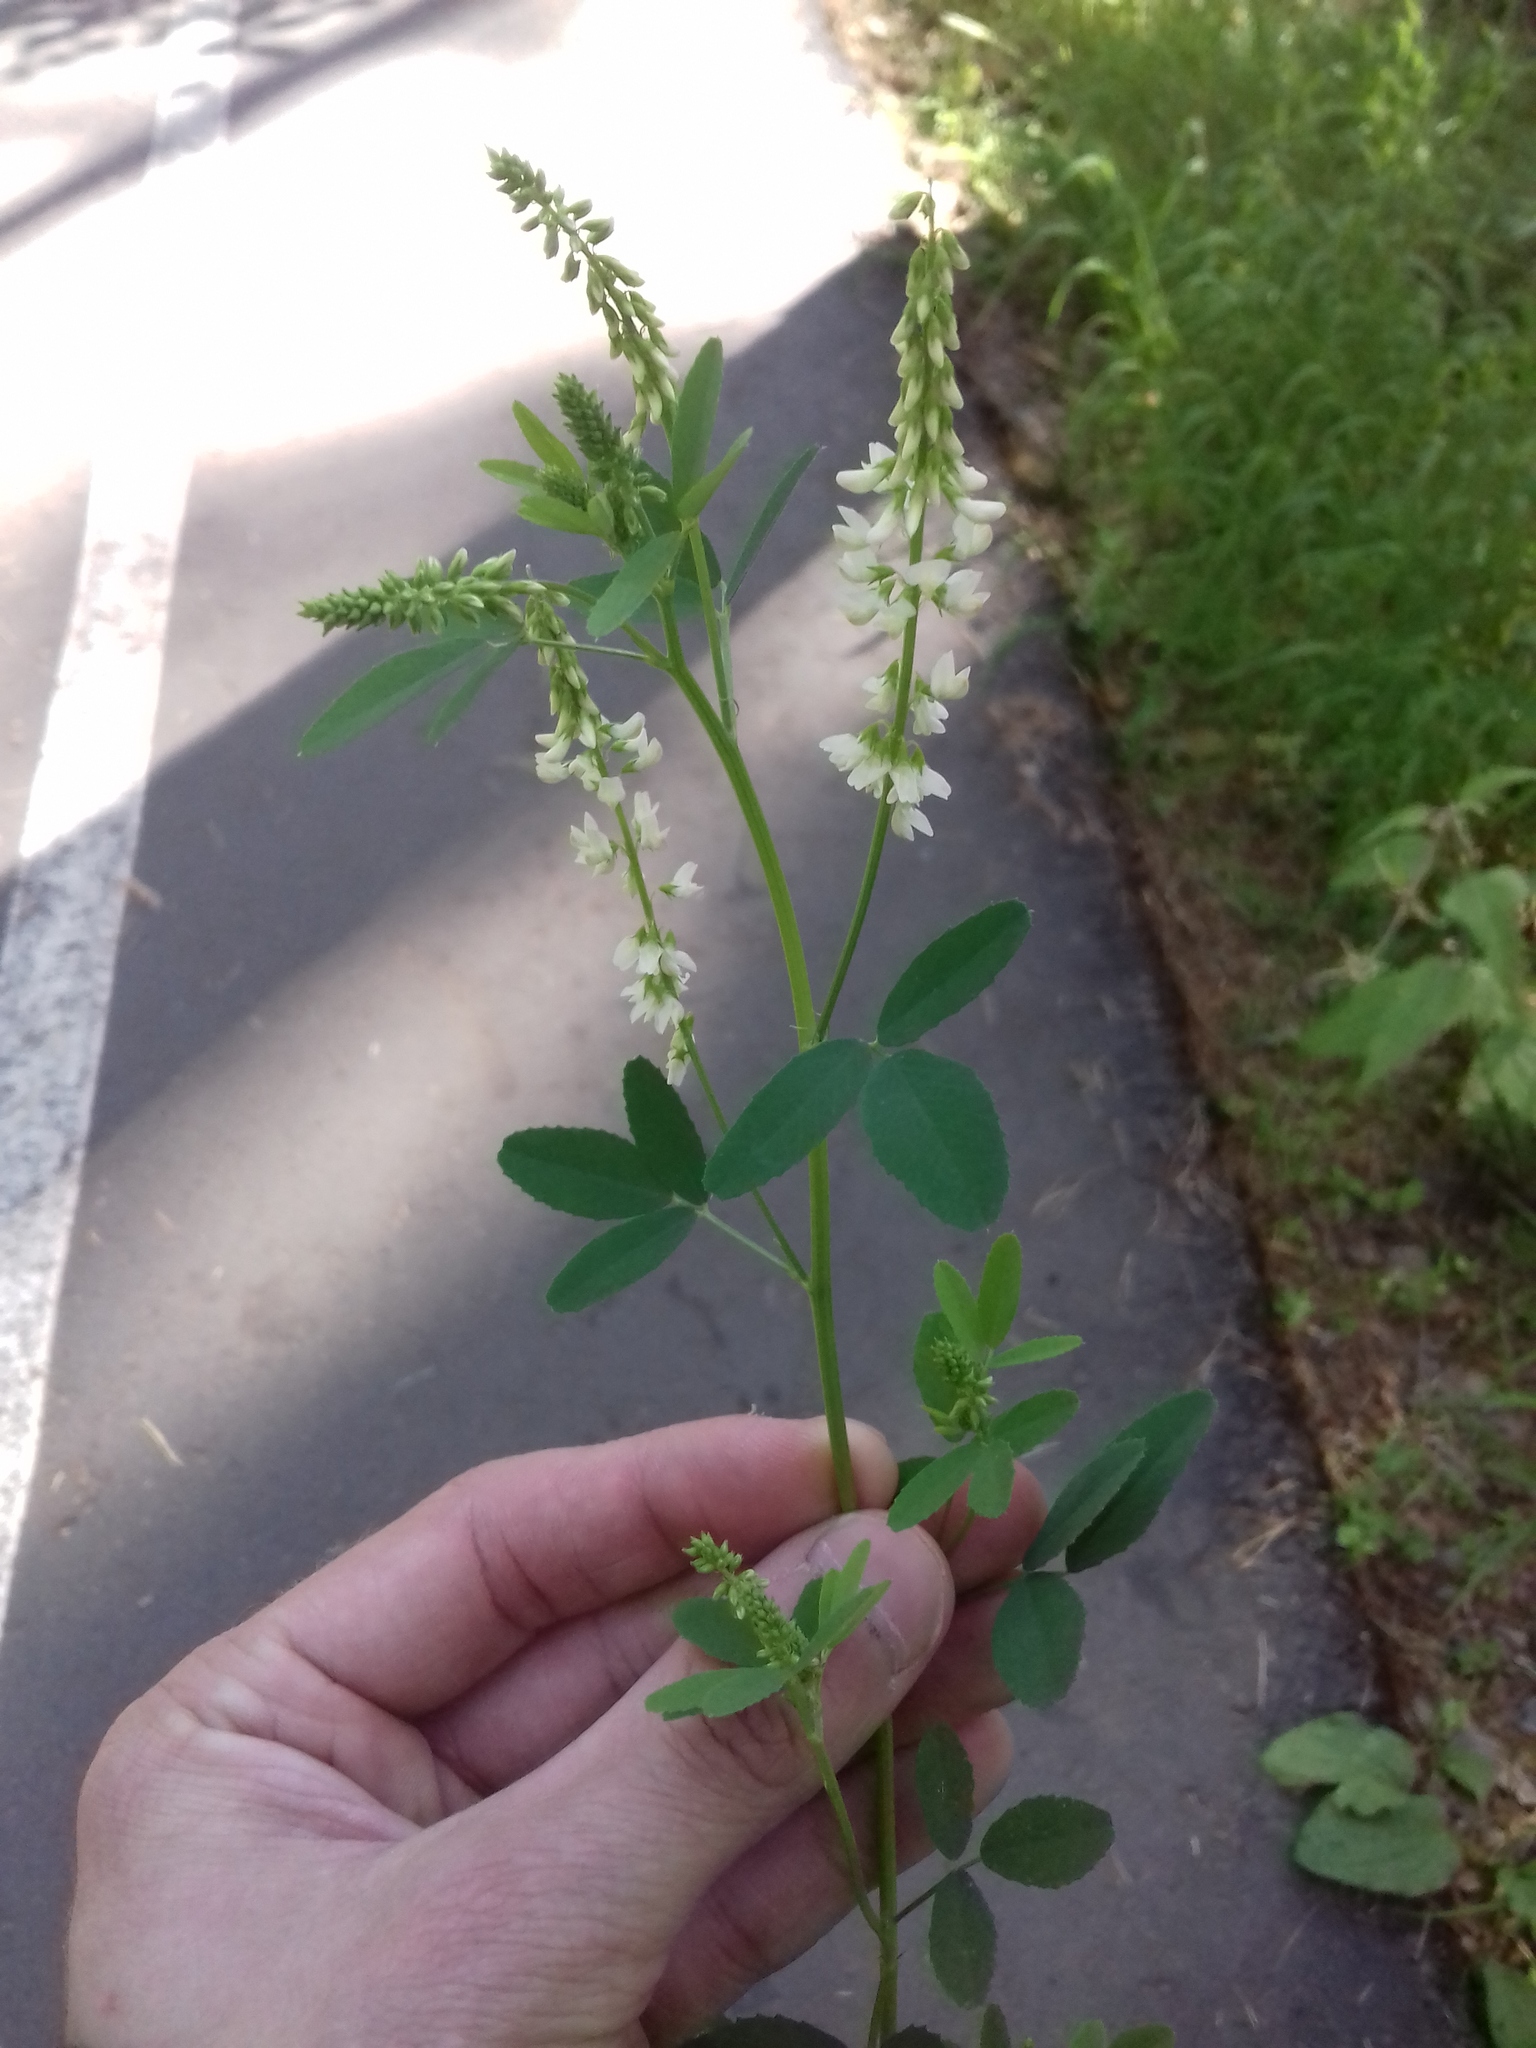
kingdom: Plantae
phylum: Tracheophyta
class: Magnoliopsida
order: Fabales
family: Fabaceae
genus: Melilotus
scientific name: Melilotus albus
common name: White melilot
